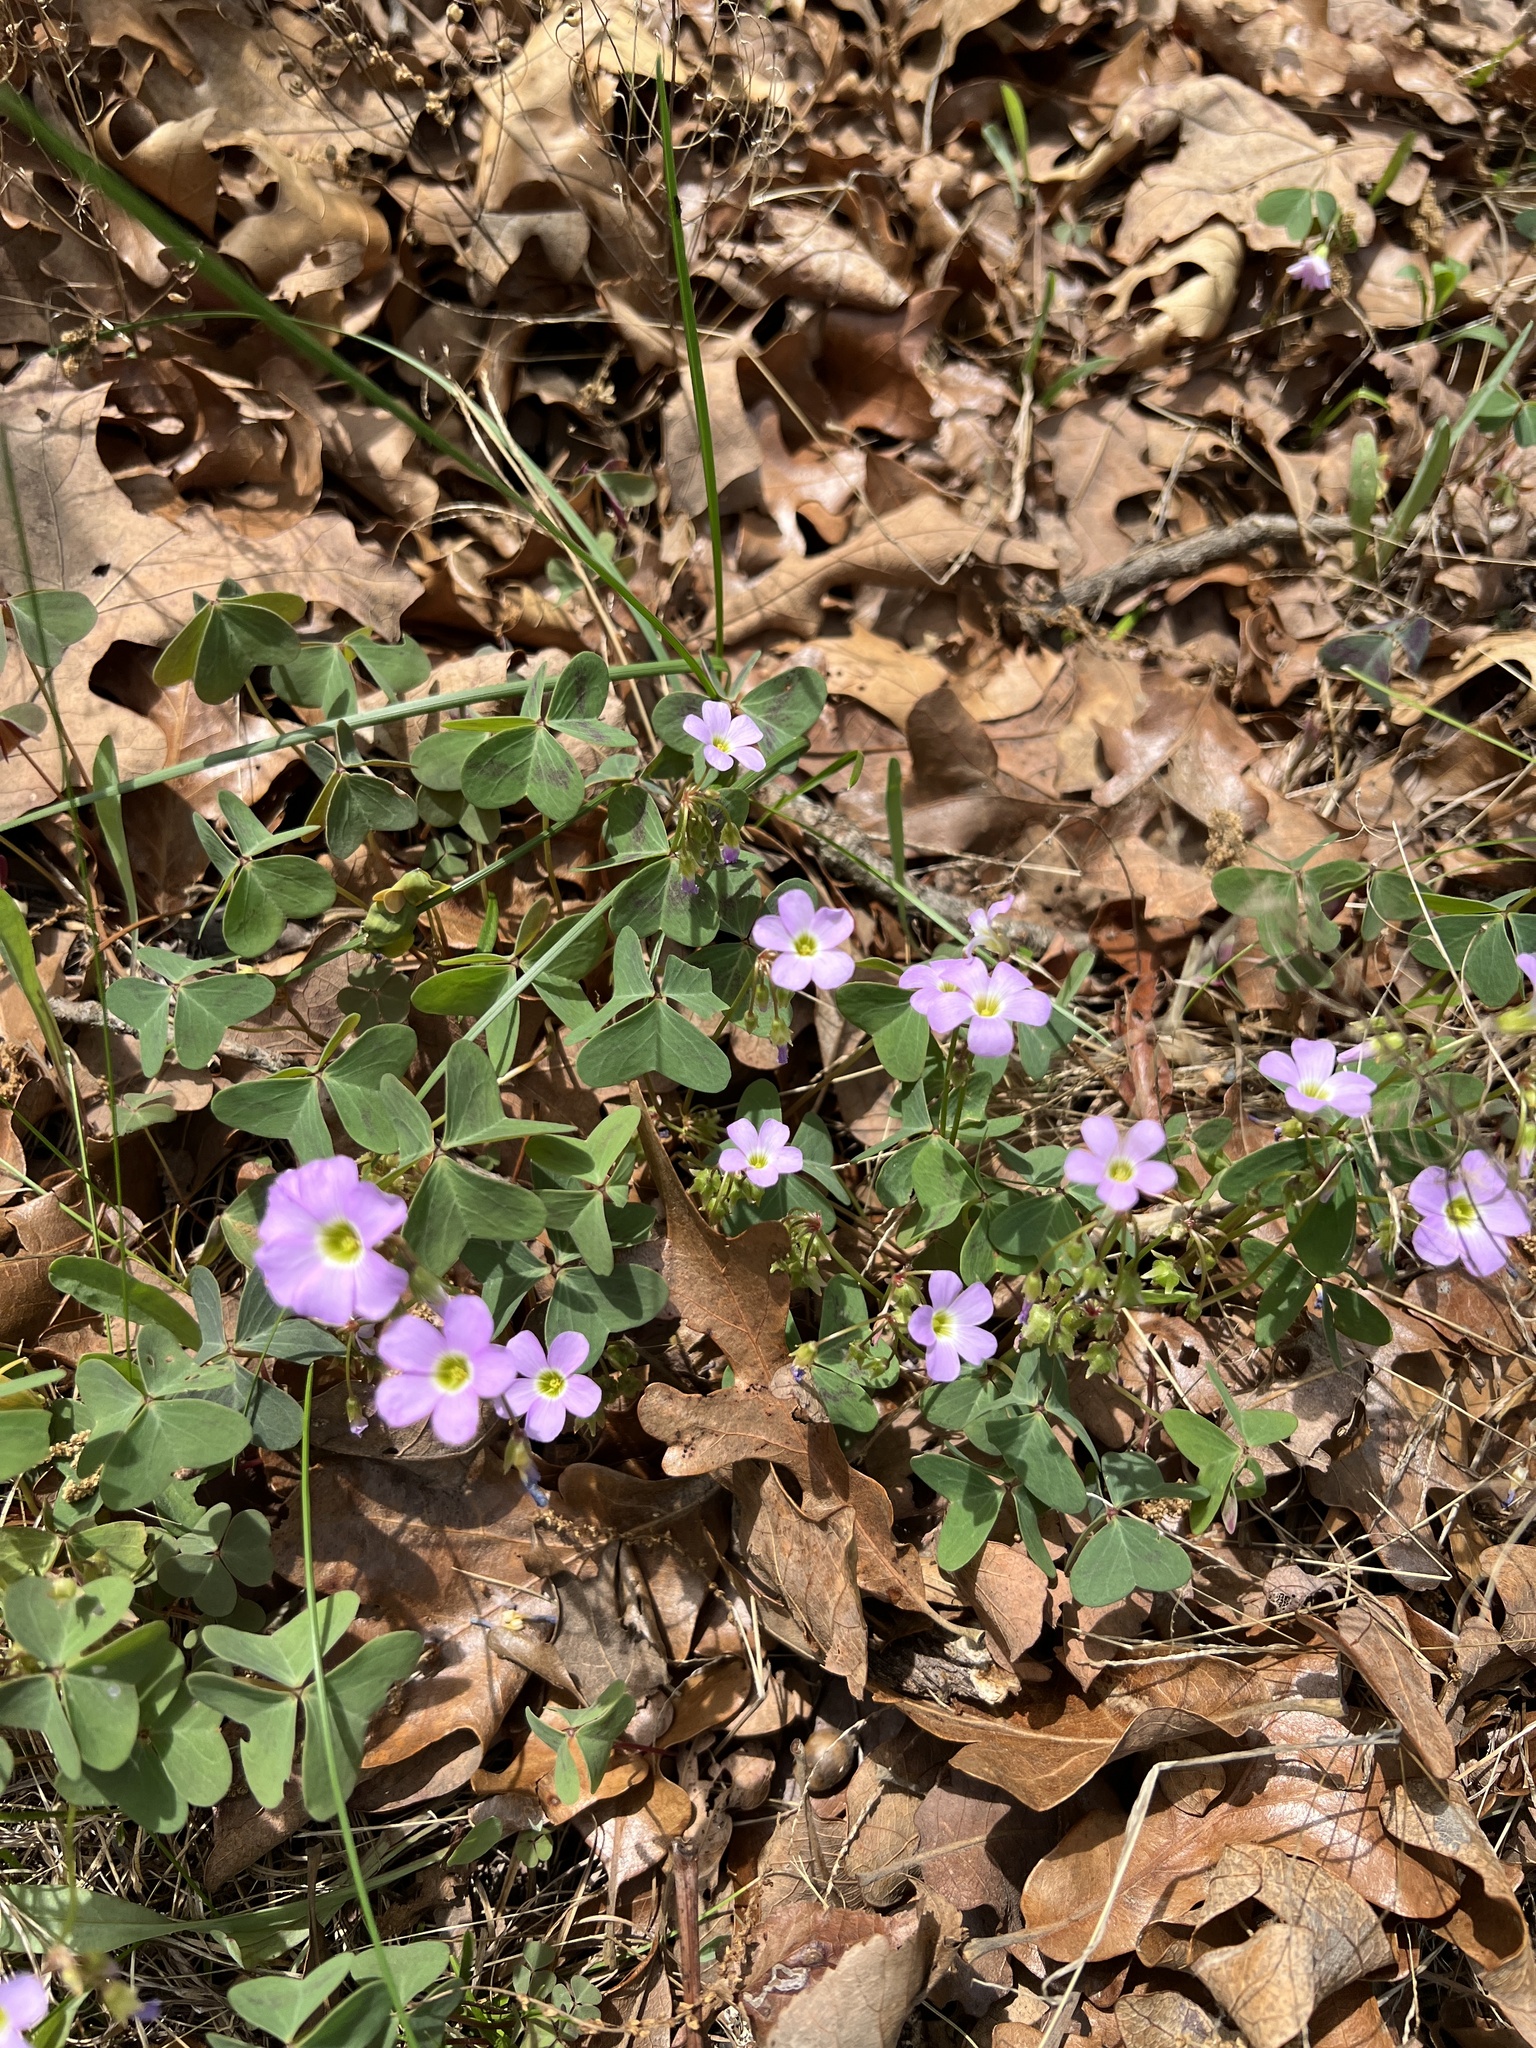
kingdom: Plantae
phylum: Tracheophyta
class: Magnoliopsida
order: Oxalidales
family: Oxalidaceae
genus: Oxalis
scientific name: Oxalis violacea
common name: Violet wood-sorrel
